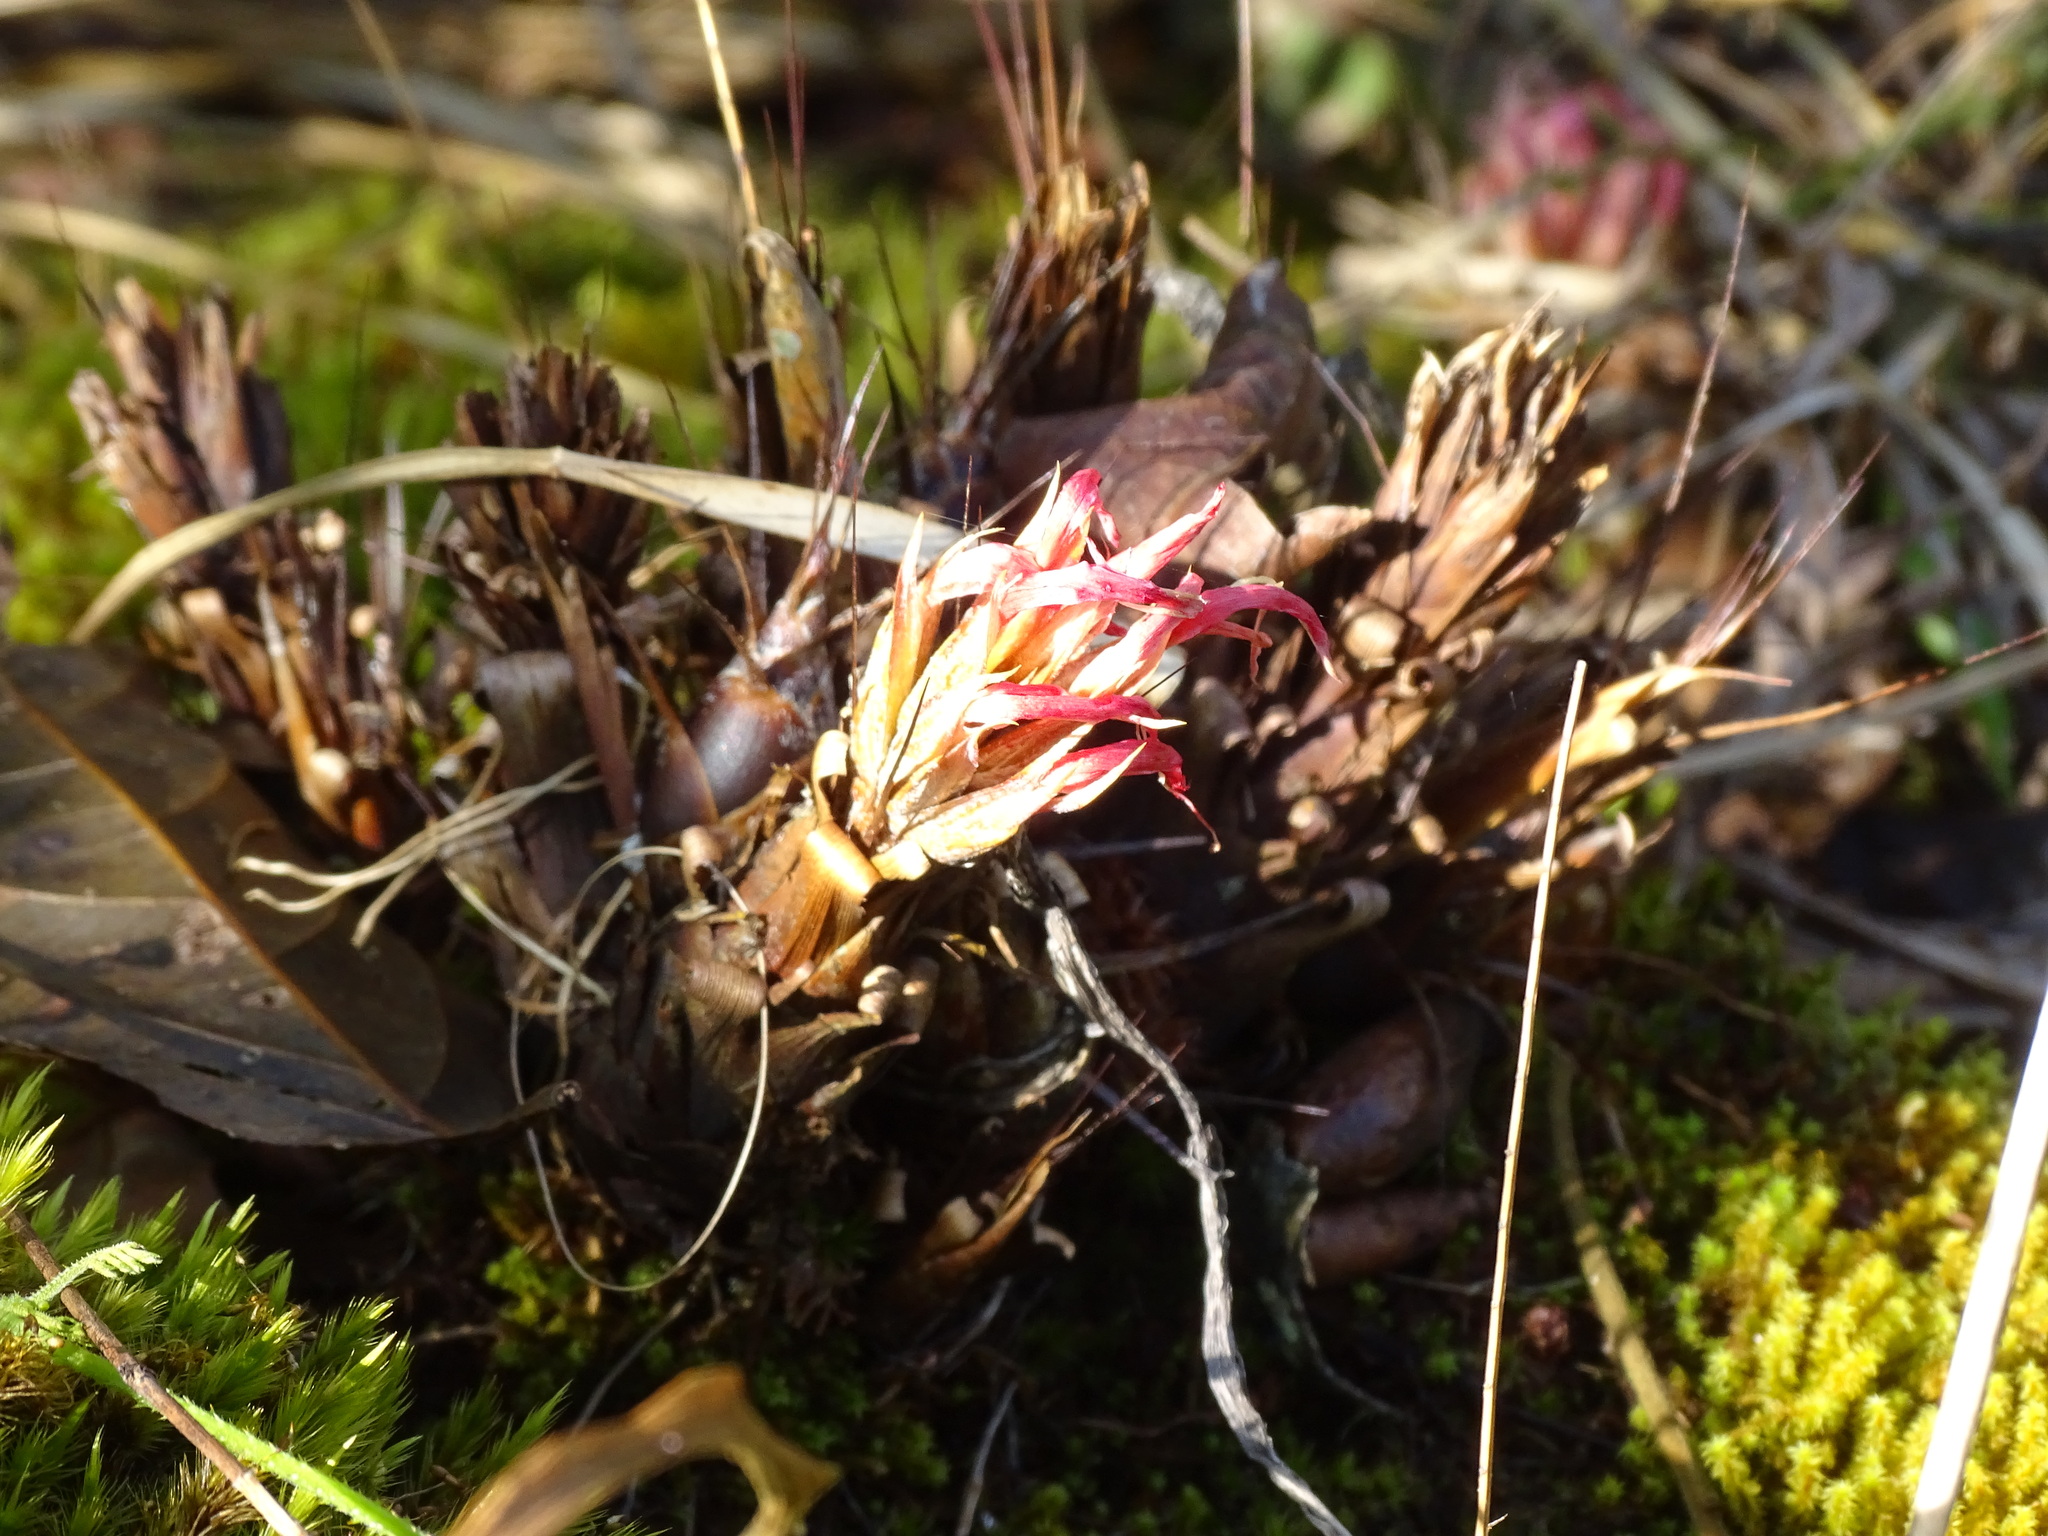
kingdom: Plantae
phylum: Tracheophyta
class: Liliopsida
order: Poales
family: Bromeliaceae
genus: Pitcairnia
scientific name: Pitcairnia heterophylla
